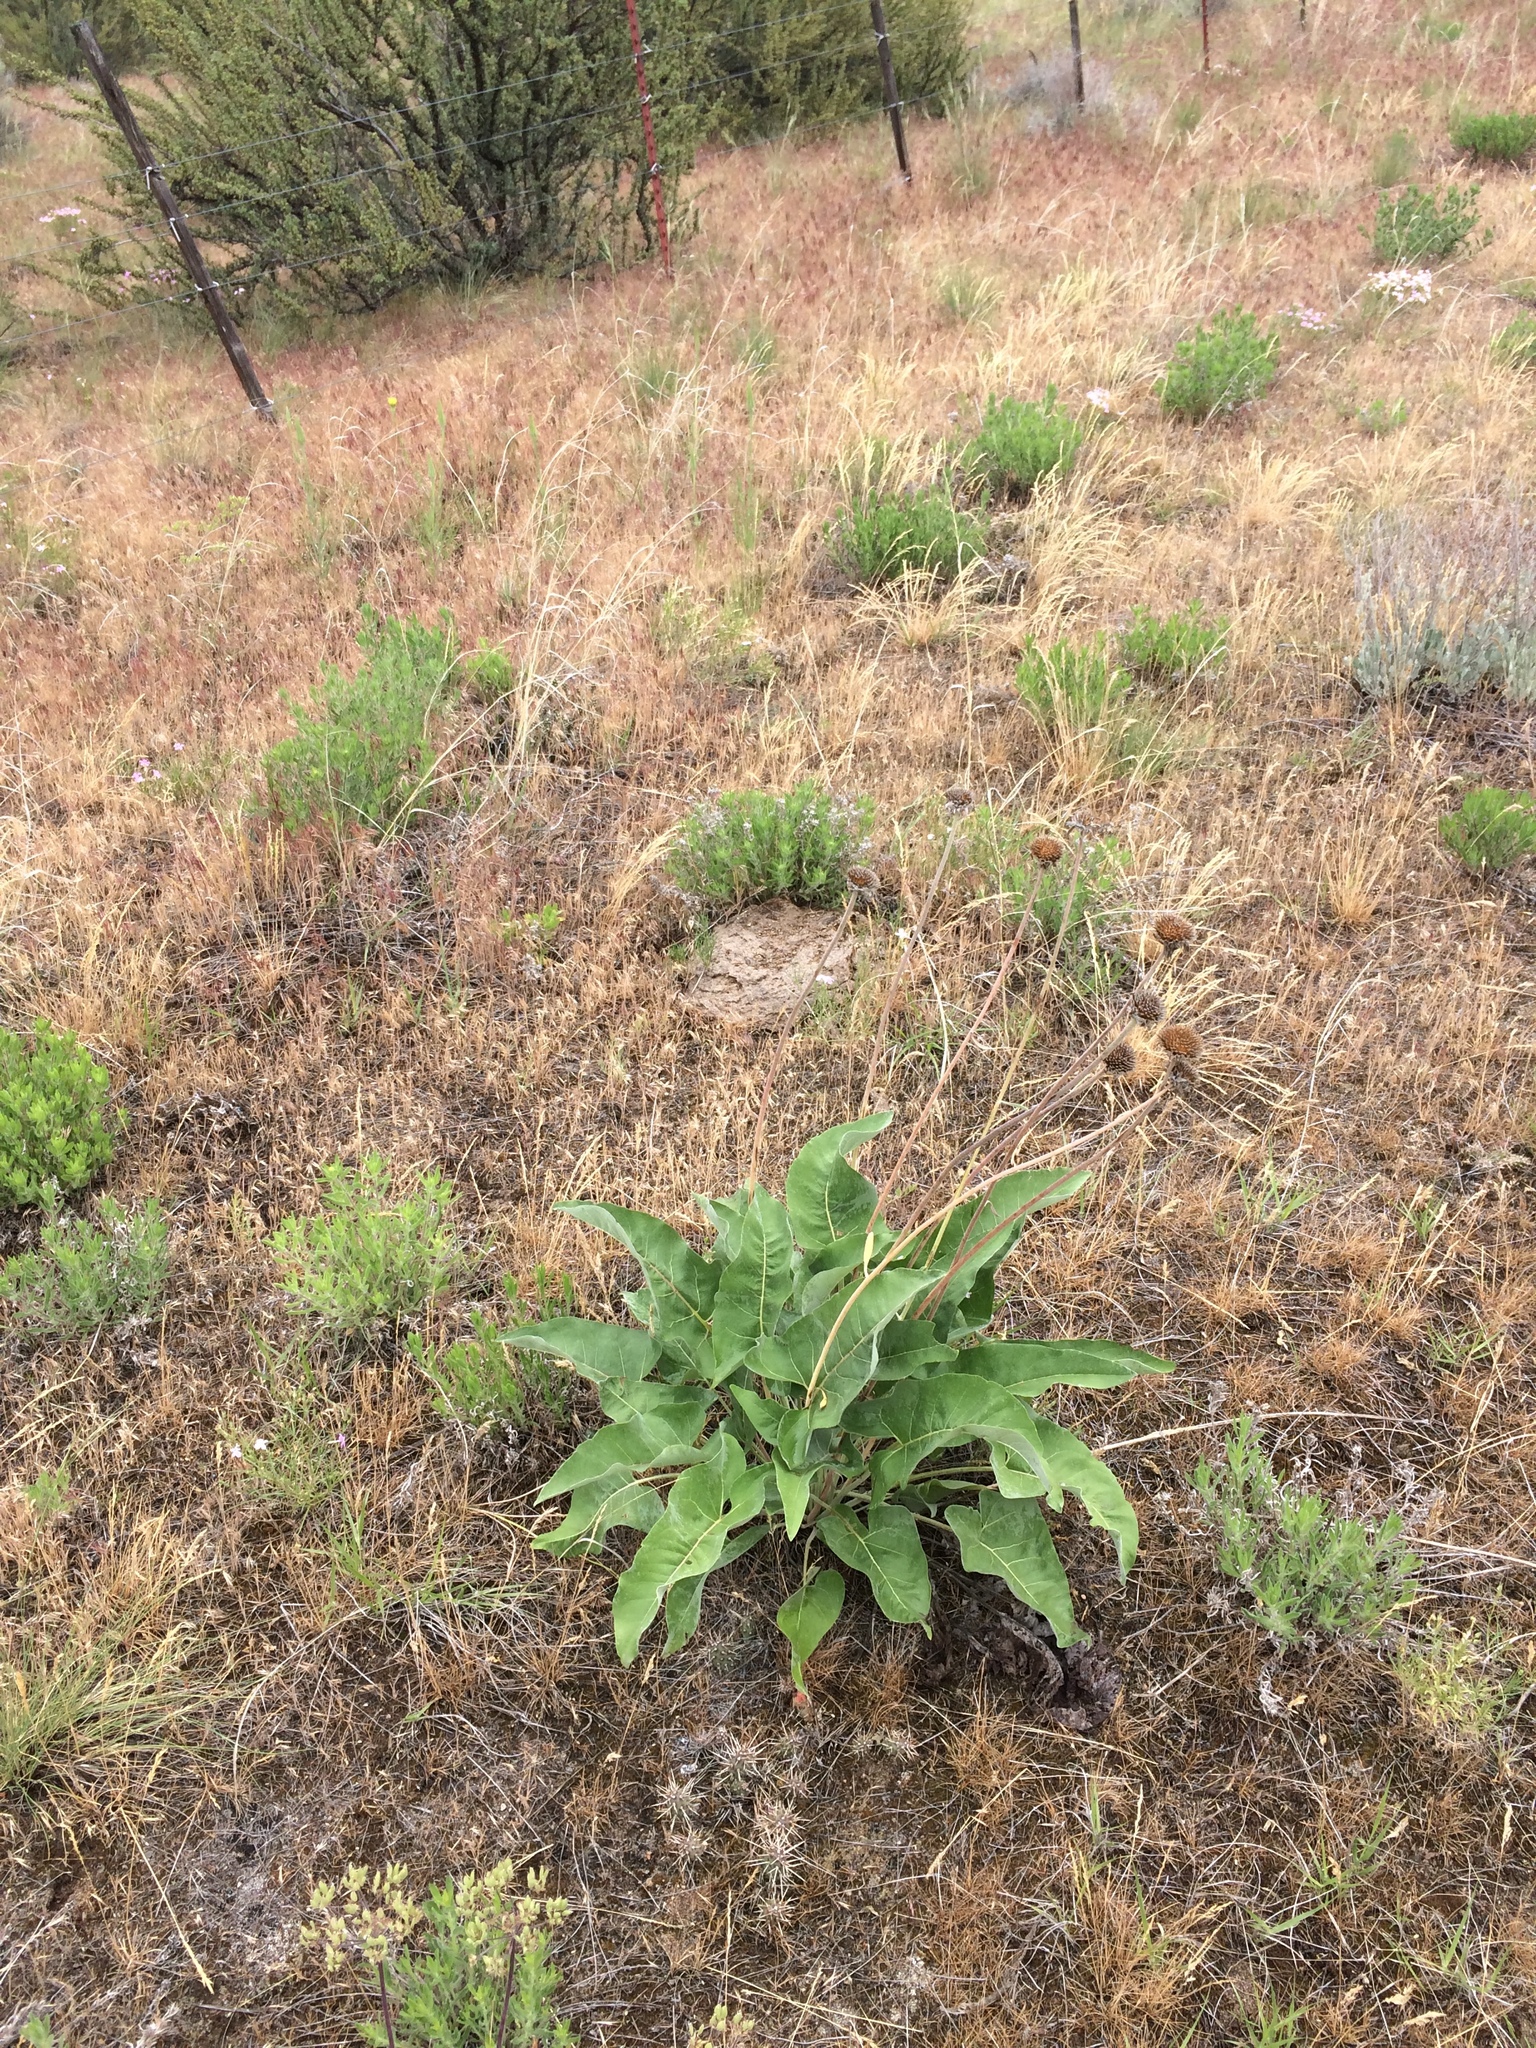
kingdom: Plantae
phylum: Tracheophyta
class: Magnoliopsida
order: Asterales
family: Asteraceae
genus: Wyethia
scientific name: Wyethia sagittata
